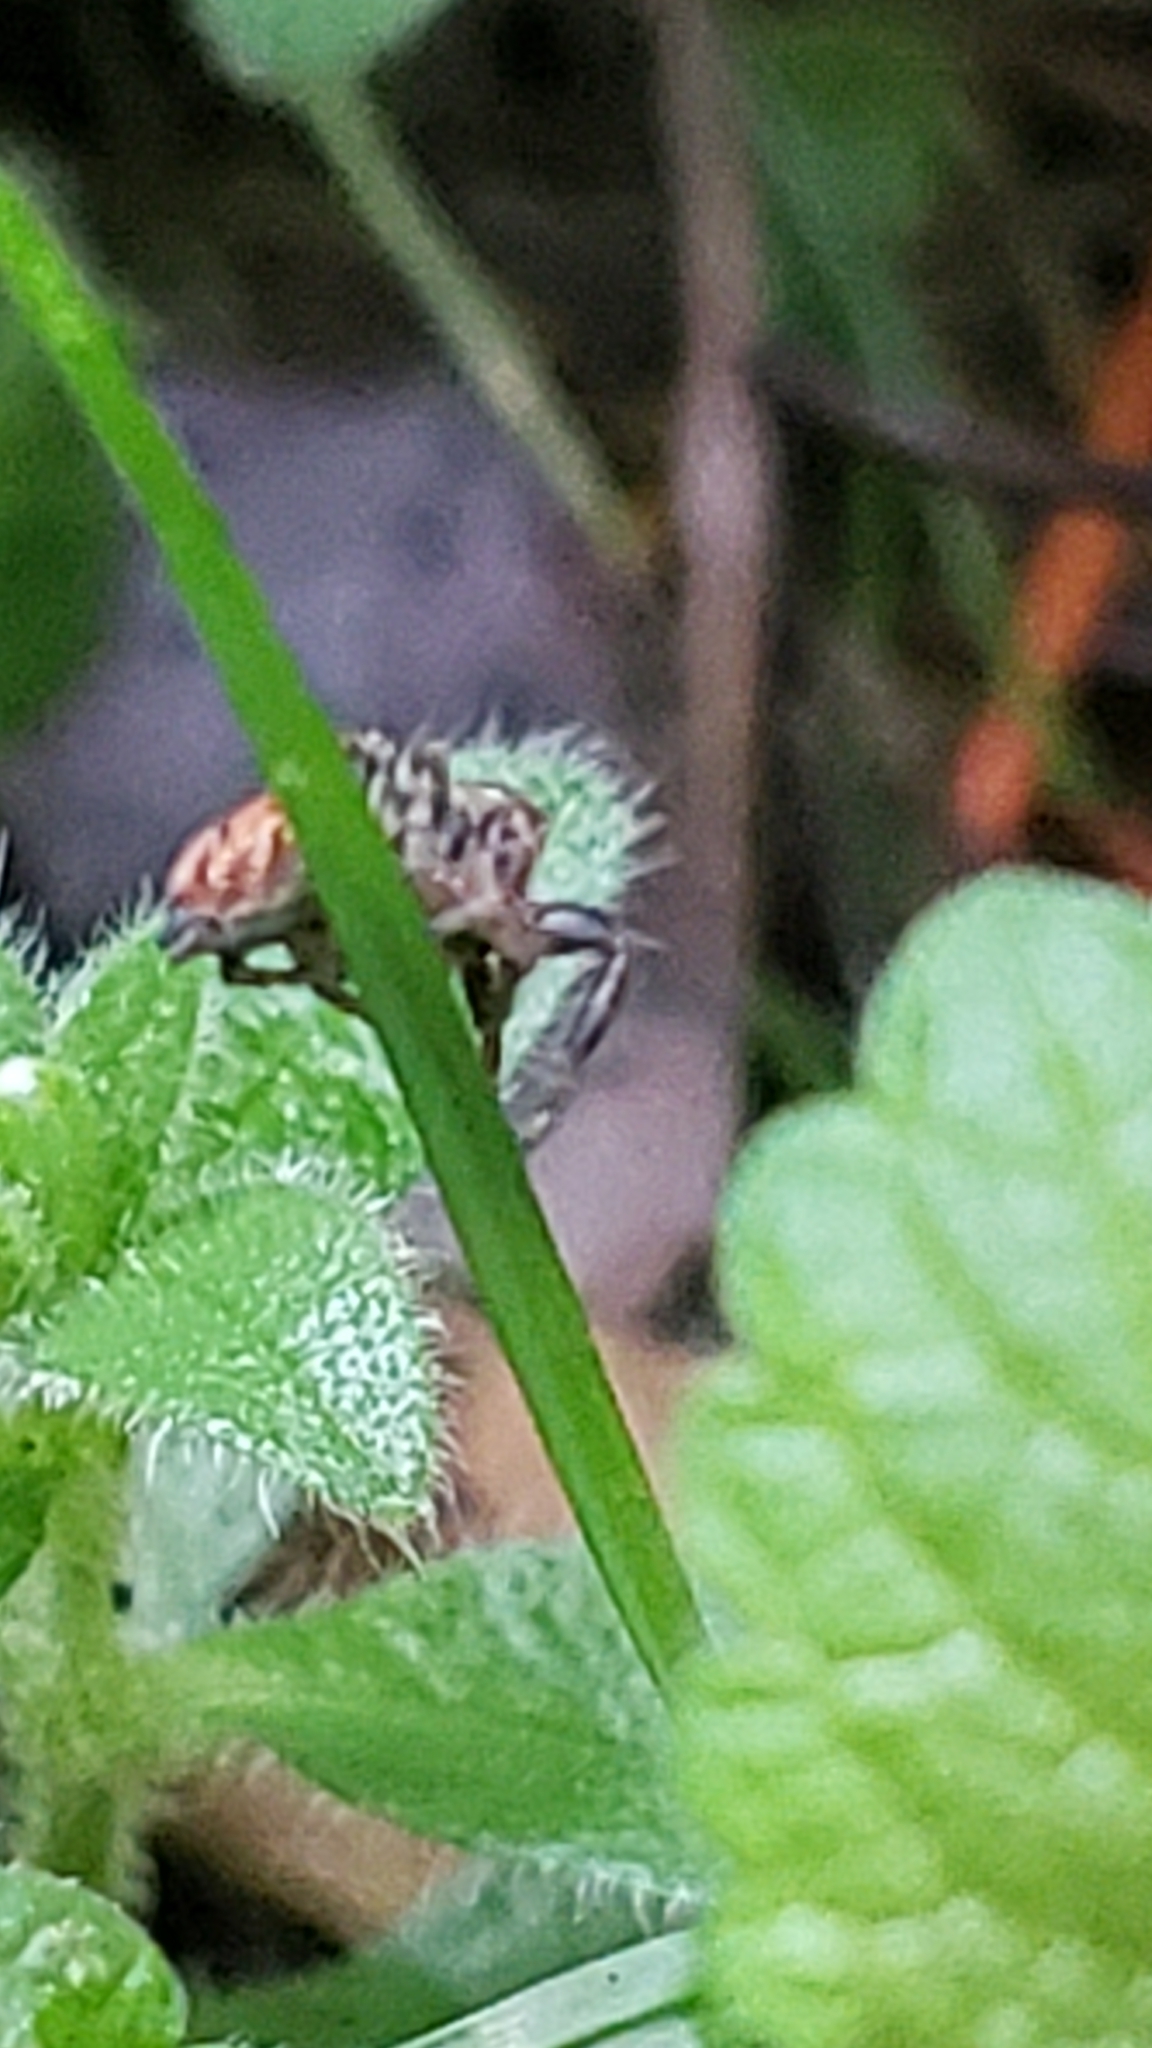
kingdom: Animalia
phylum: Arthropoda
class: Arachnida
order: Araneae
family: Salticidae
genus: Evarcha
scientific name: Evarcha proszynskii
